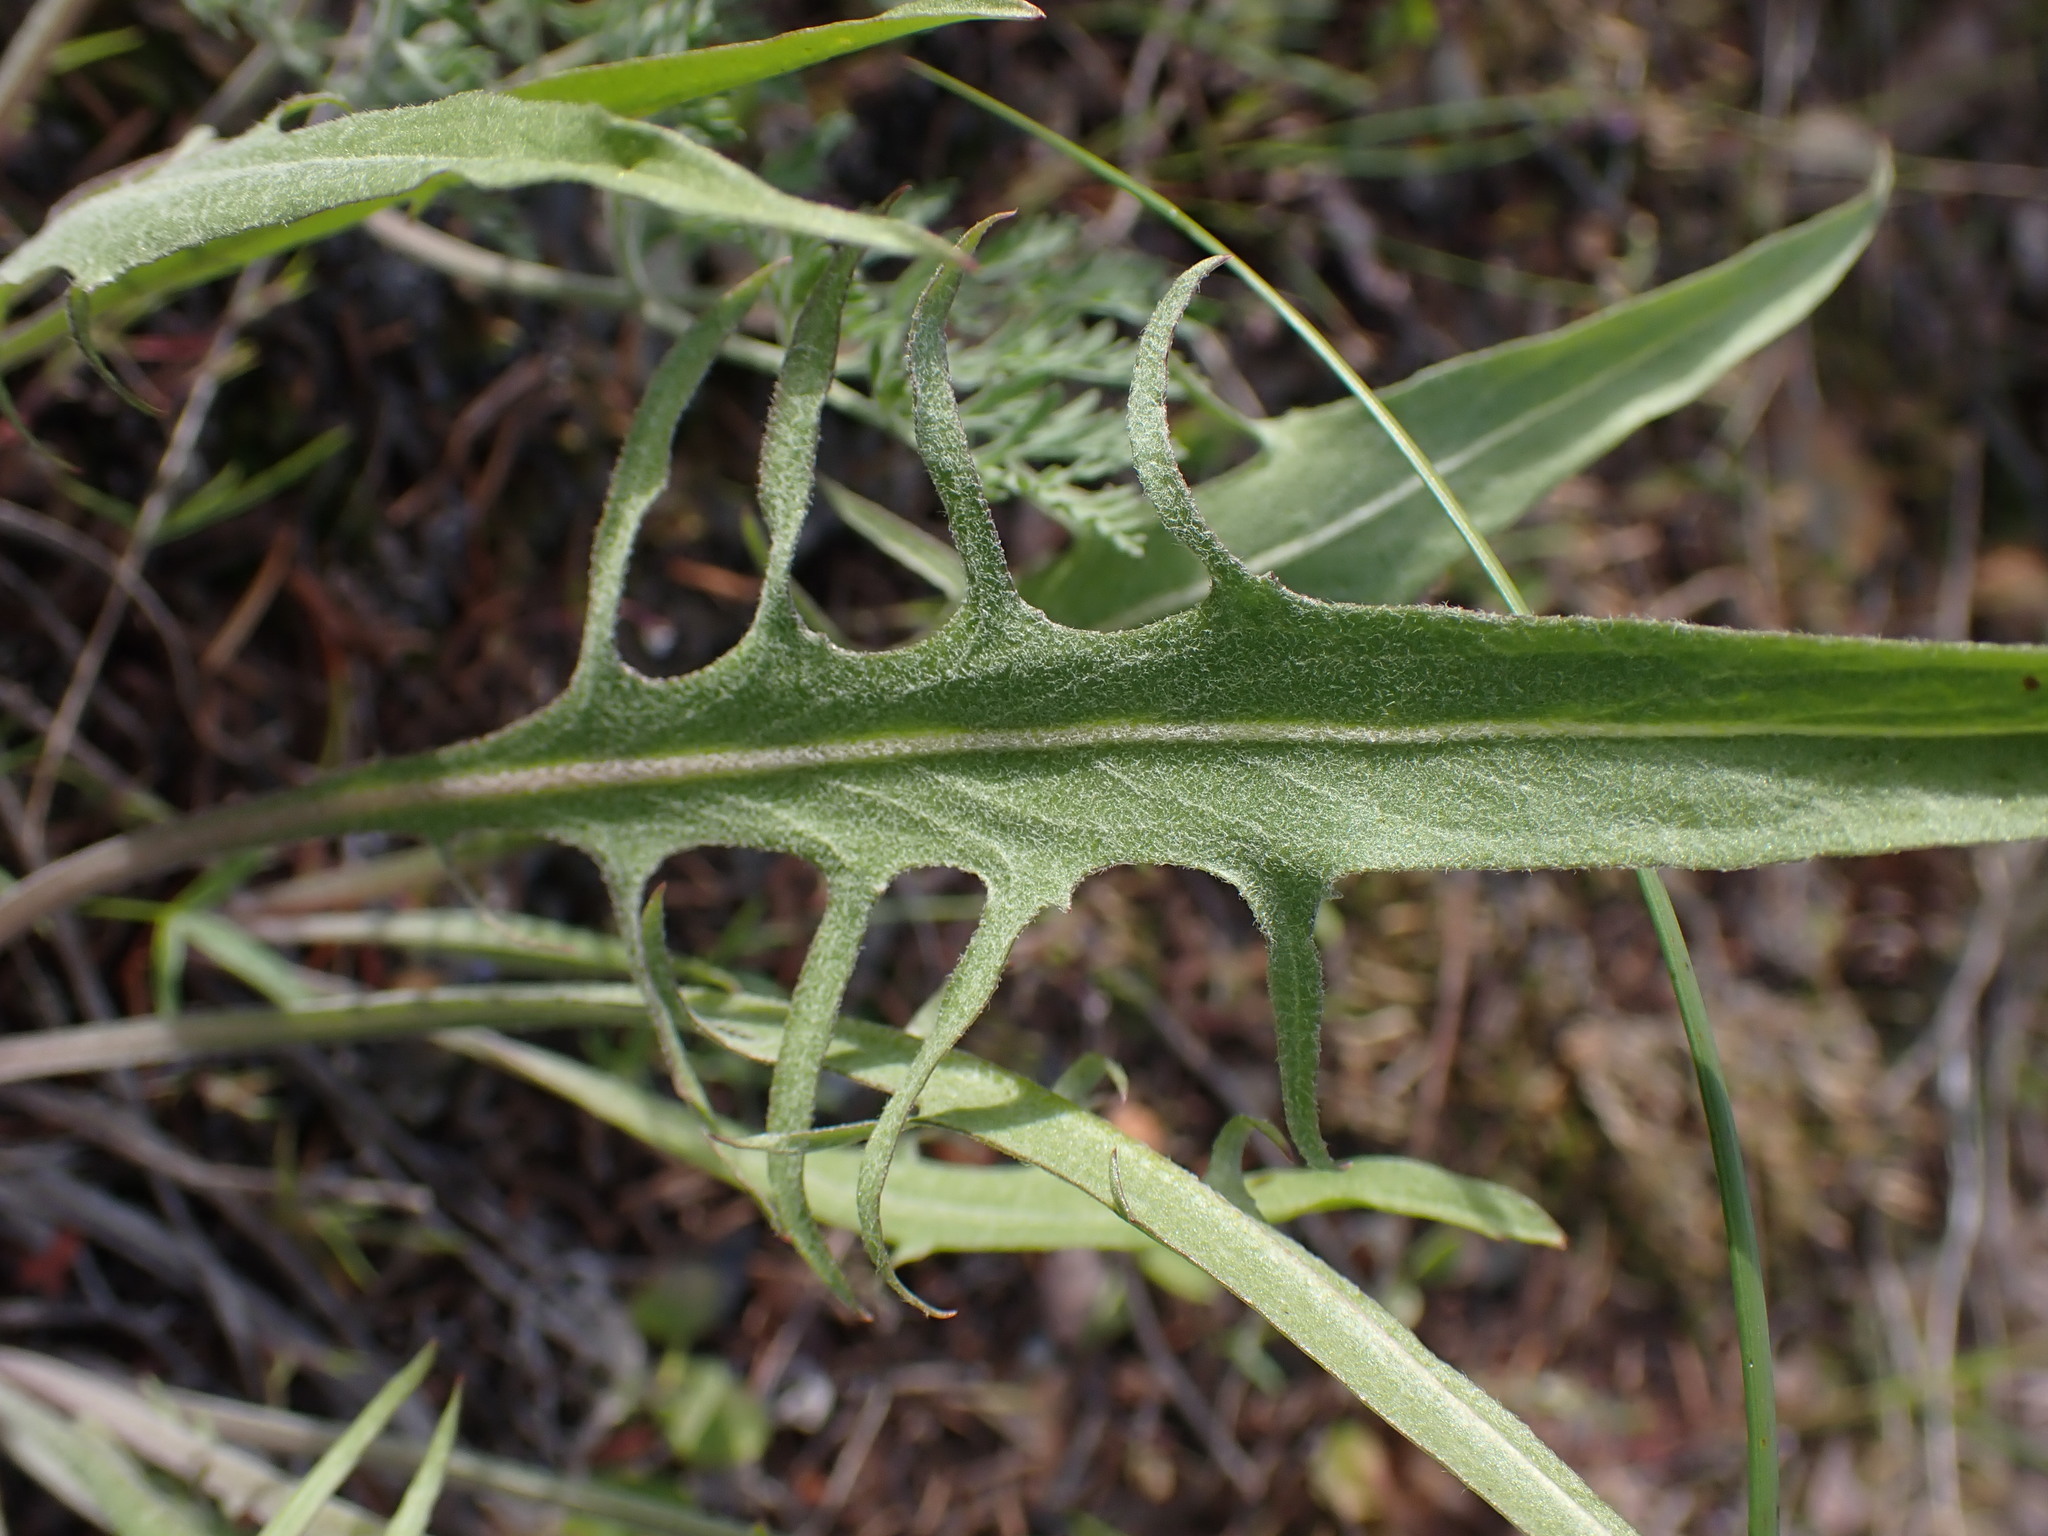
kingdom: Plantae
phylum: Tracheophyta
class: Magnoliopsida
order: Asterales
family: Asteraceae
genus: Crepis
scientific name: Crepis atribarba
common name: Dark hawk's-beard
